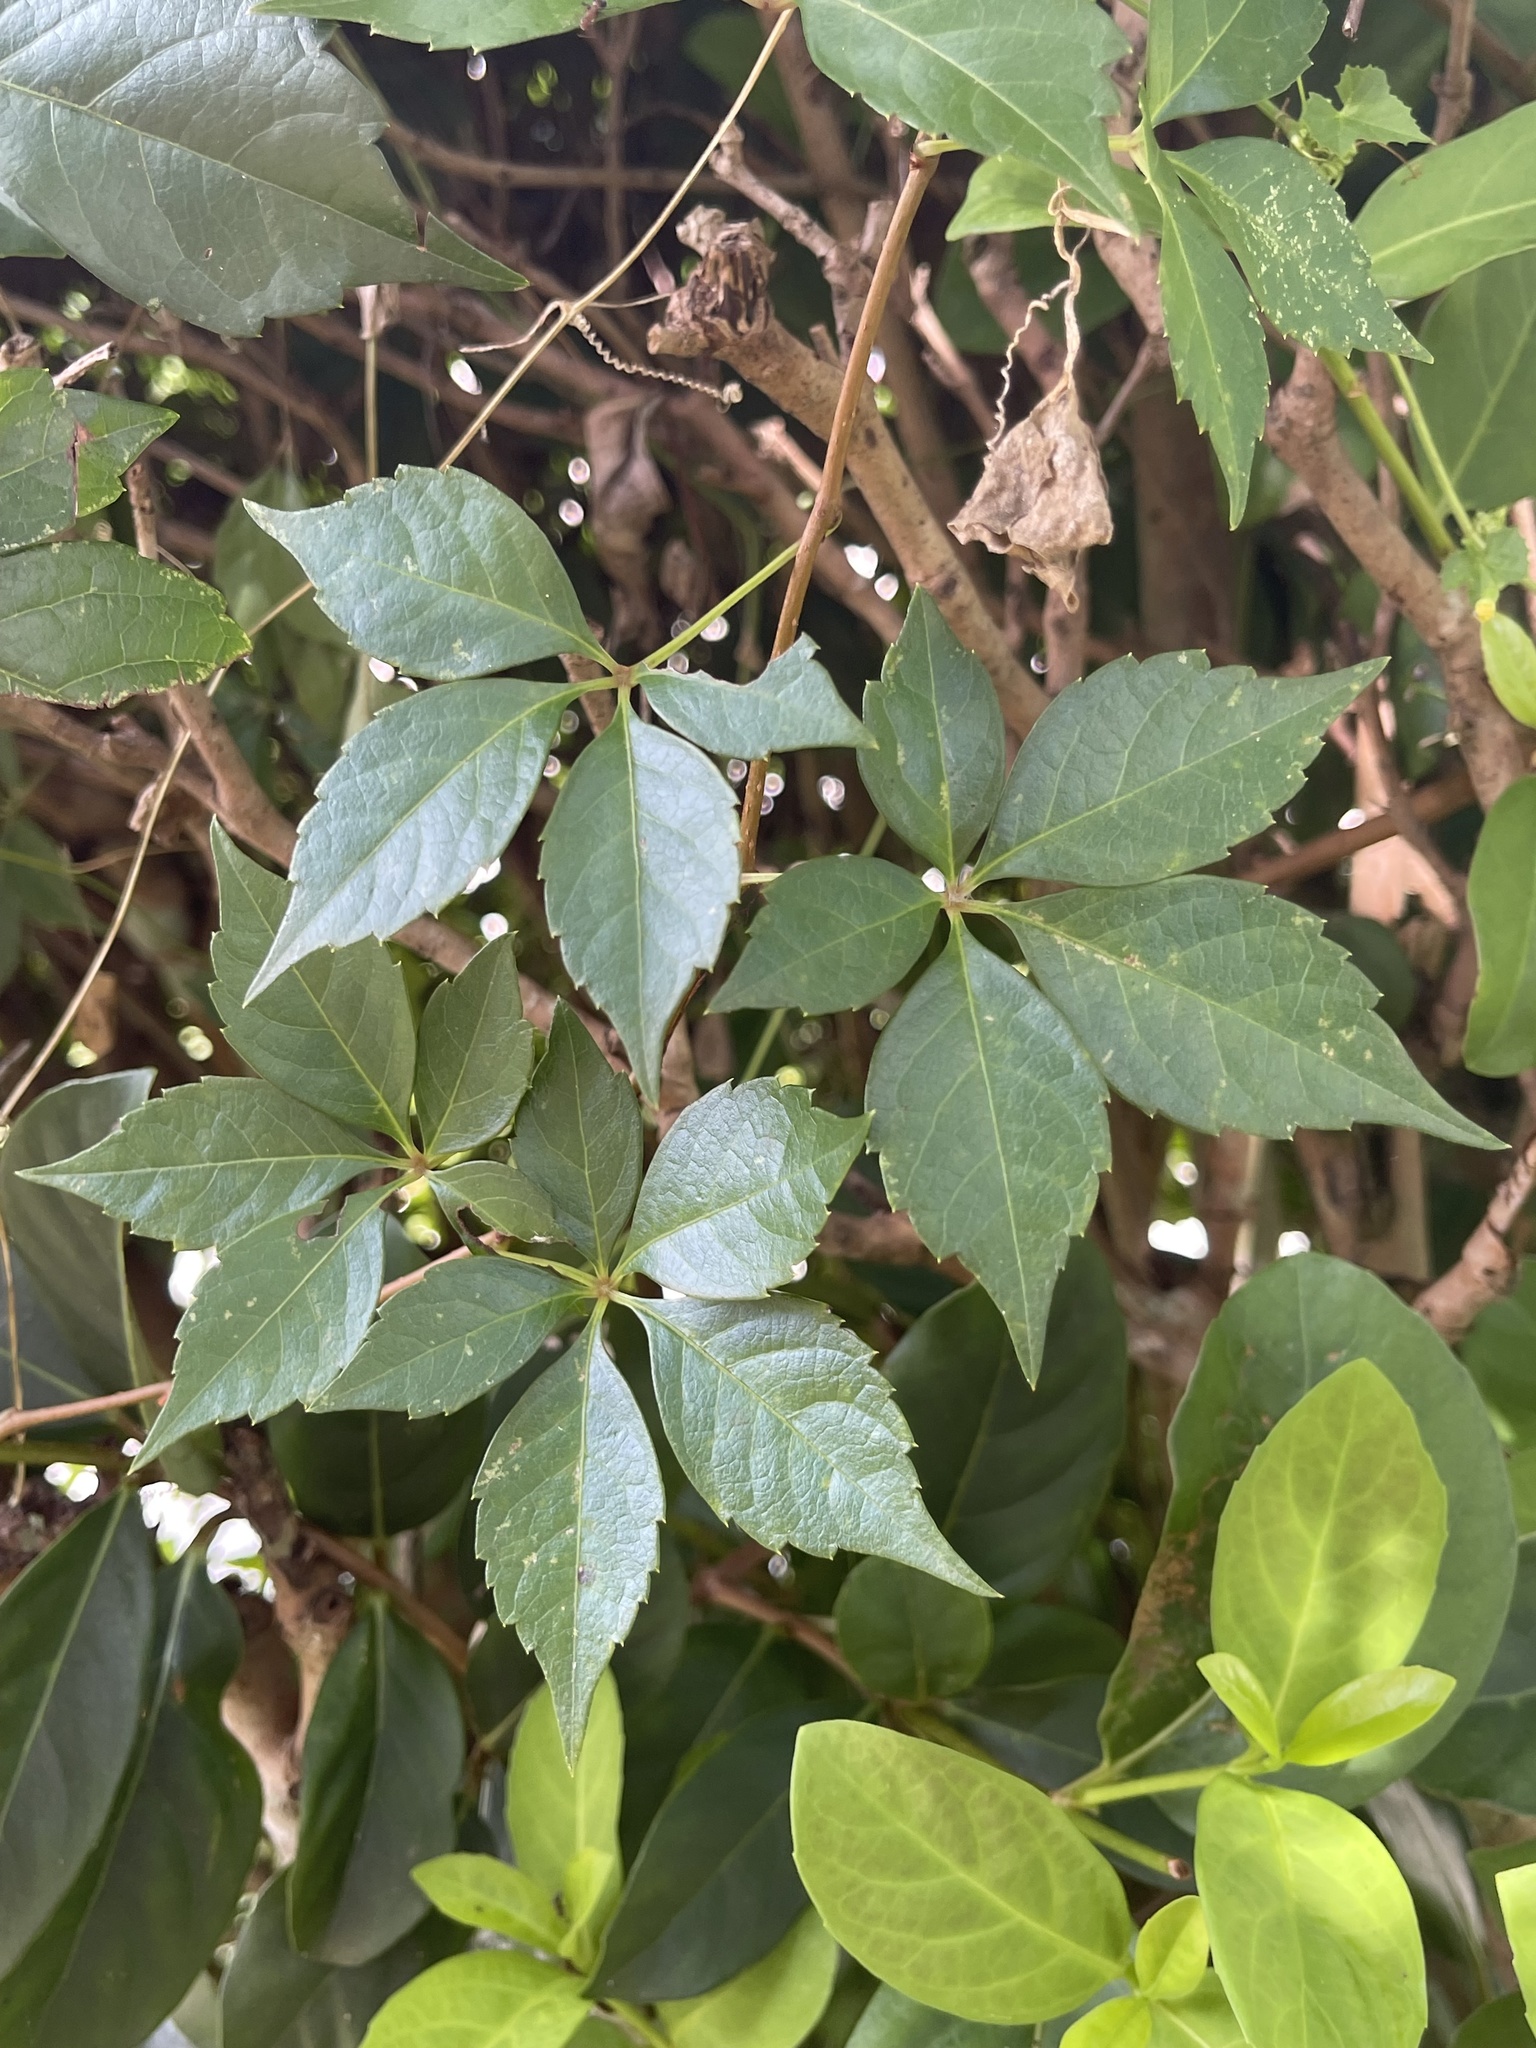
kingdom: Plantae
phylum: Tracheophyta
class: Magnoliopsida
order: Vitales
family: Vitaceae
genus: Parthenocissus
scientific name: Parthenocissus quinquefolia
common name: Virginia-creeper
